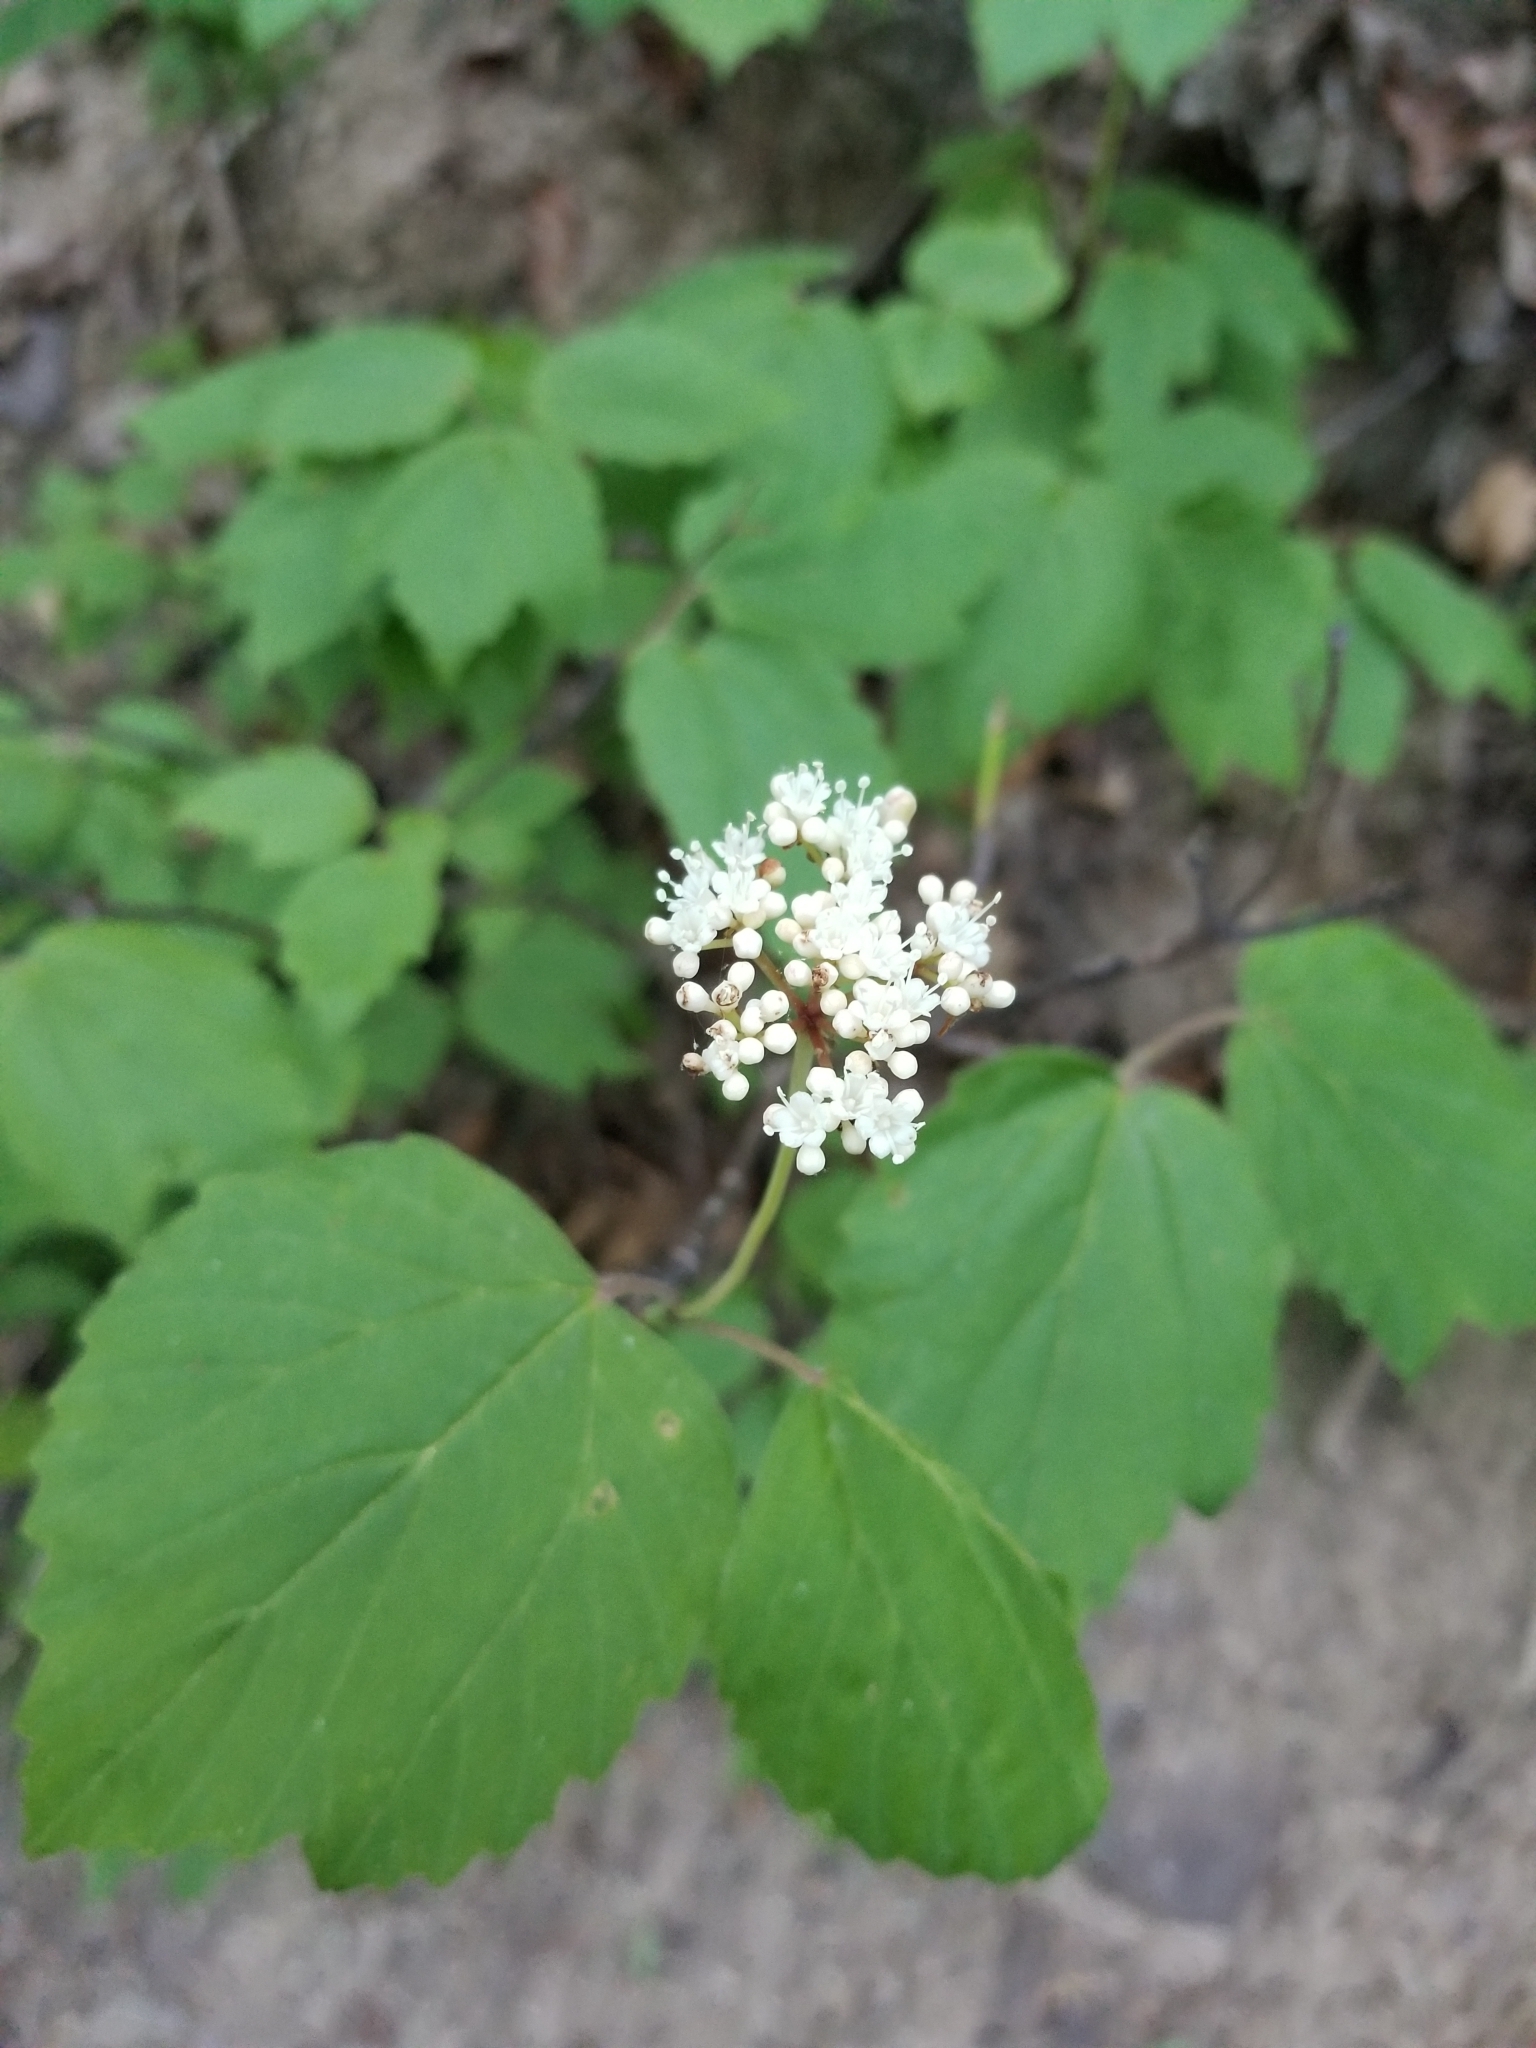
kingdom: Plantae
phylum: Tracheophyta
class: Magnoliopsida
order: Dipsacales
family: Viburnaceae
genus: Viburnum
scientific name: Viburnum acerifolium
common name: Dockmackie
